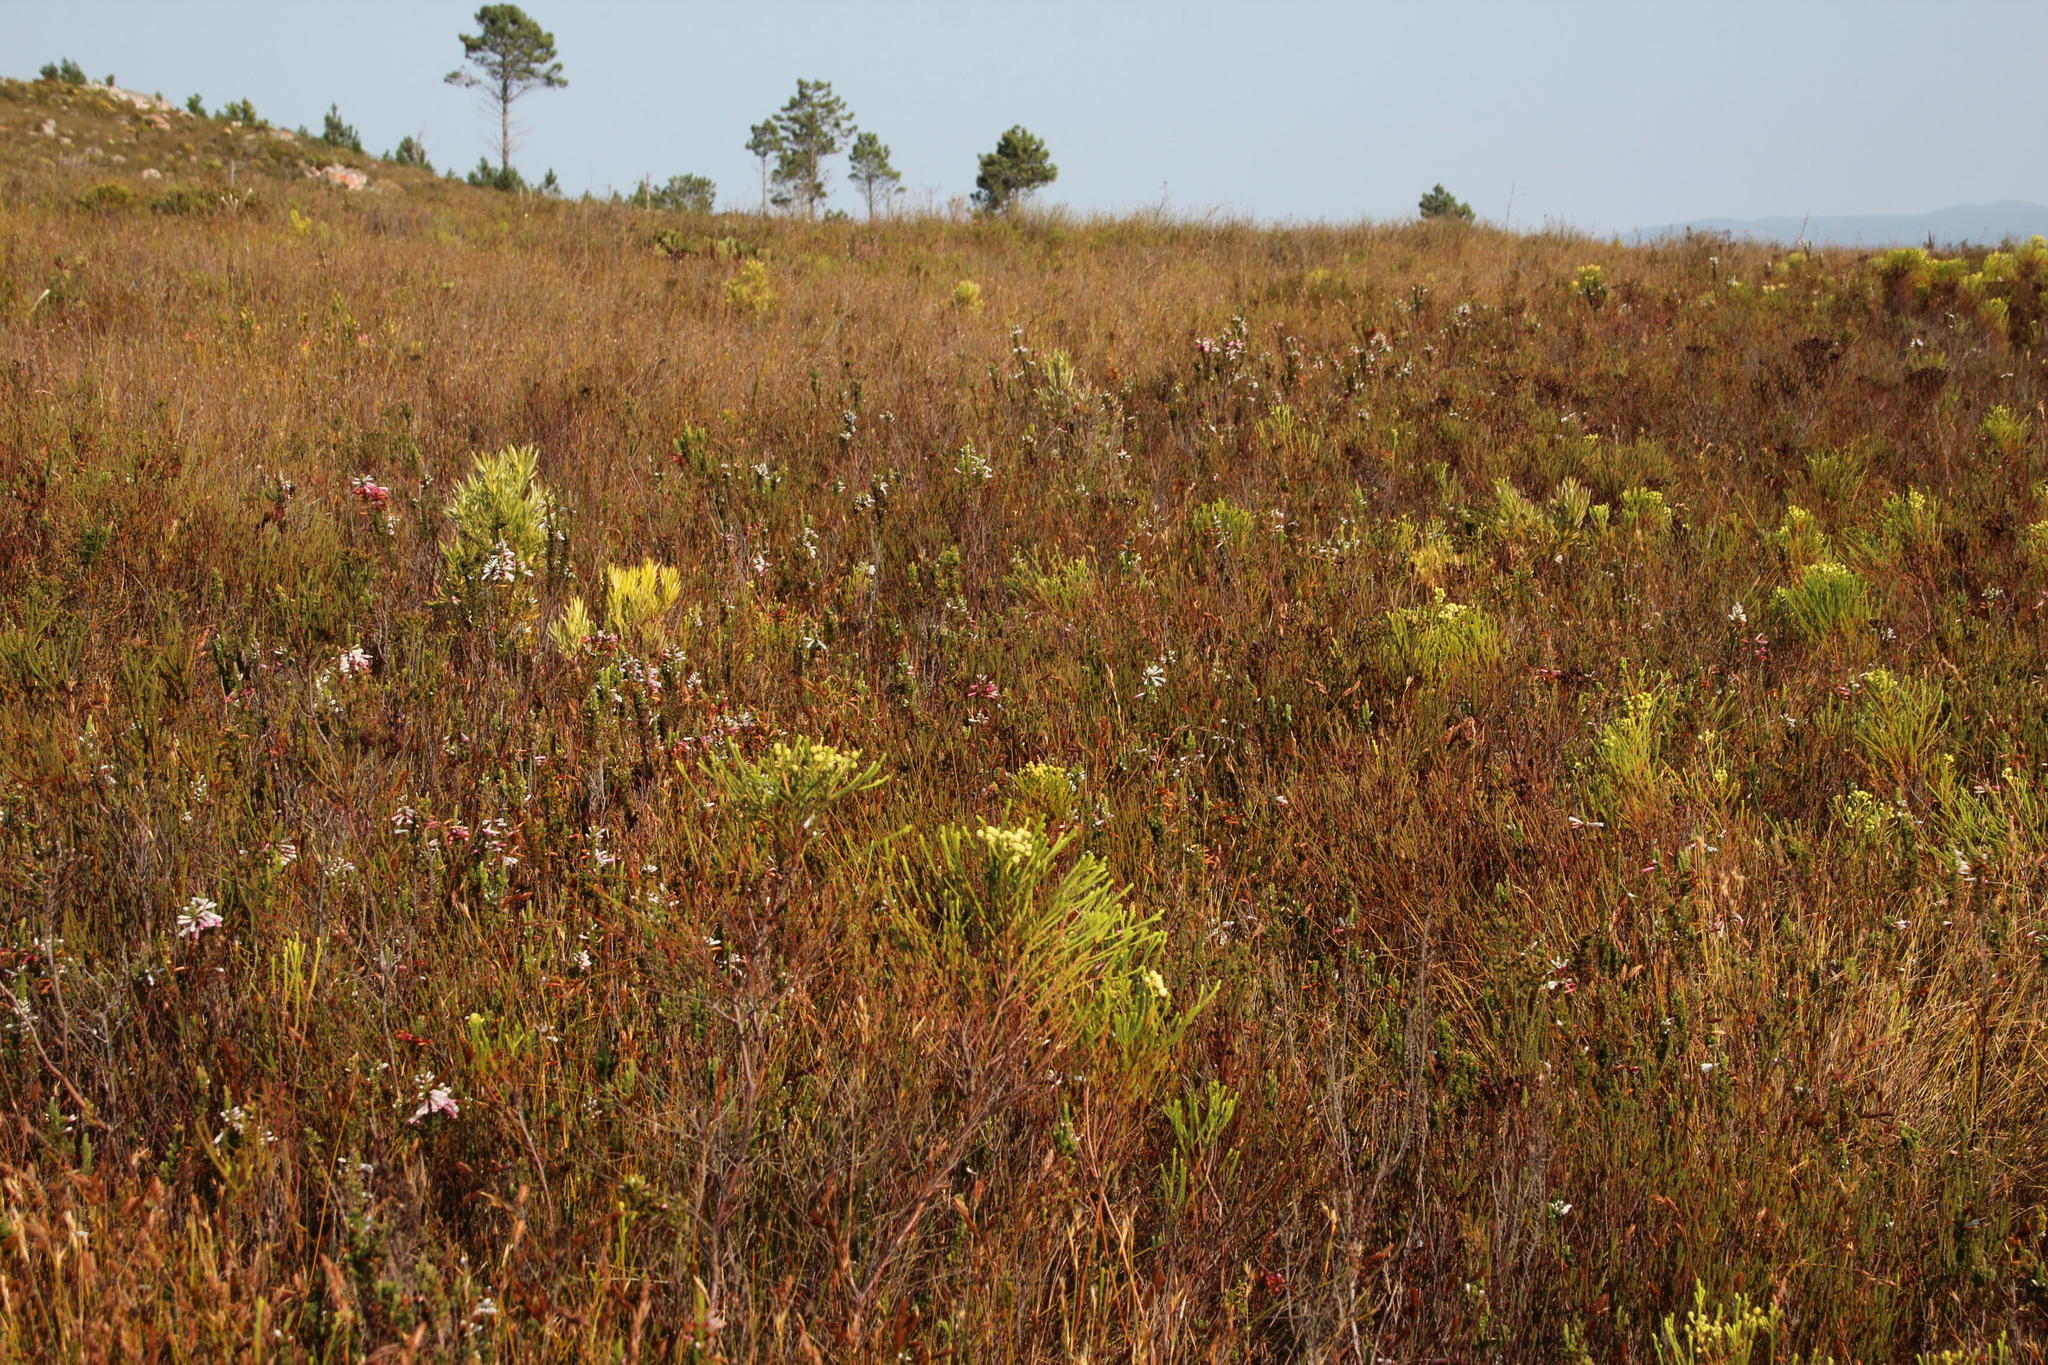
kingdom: Plantae
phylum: Tracheophyta
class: Magnoliopsida
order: Ericales
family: Ericaceae
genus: Erica
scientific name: Erica colorans
